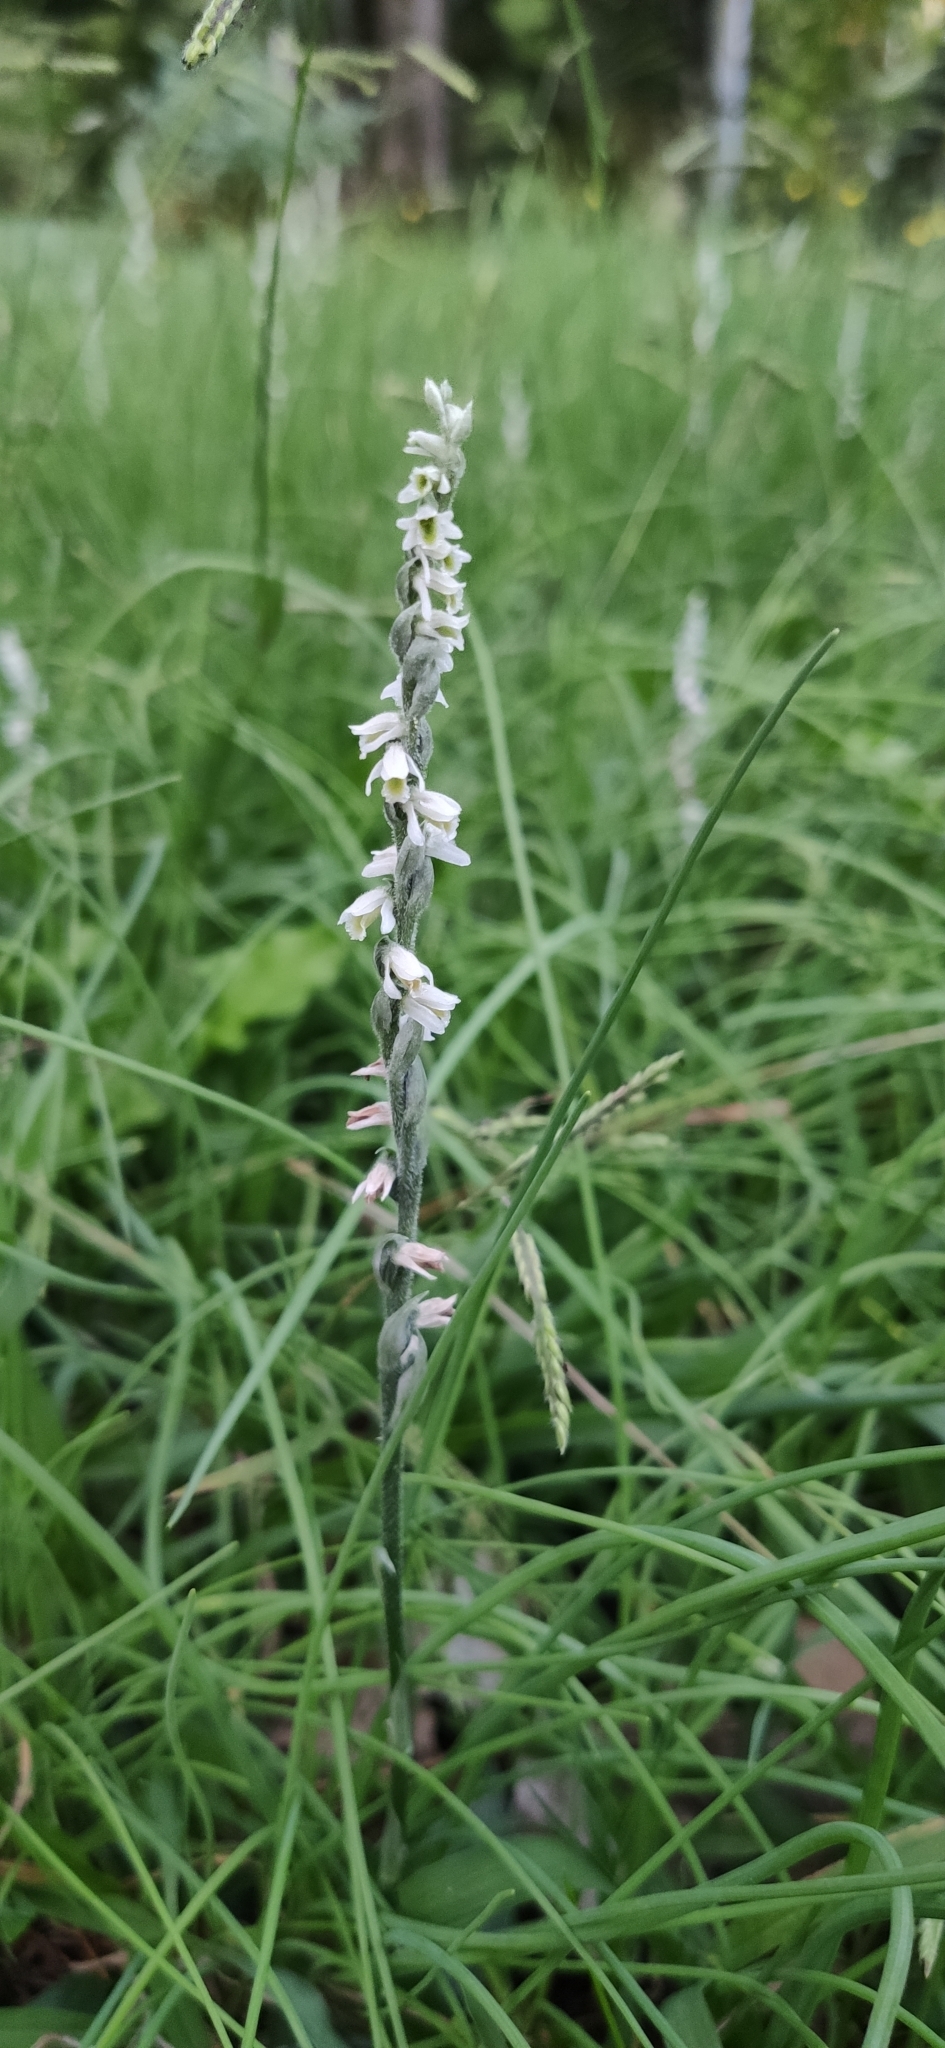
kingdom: Plantae
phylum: Tracheophyta
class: Liliopsida
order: Asparagales
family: Orchidaceae
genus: Spiranthes
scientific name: Spiranthes spiralis
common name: Autumn lady's-tresses
